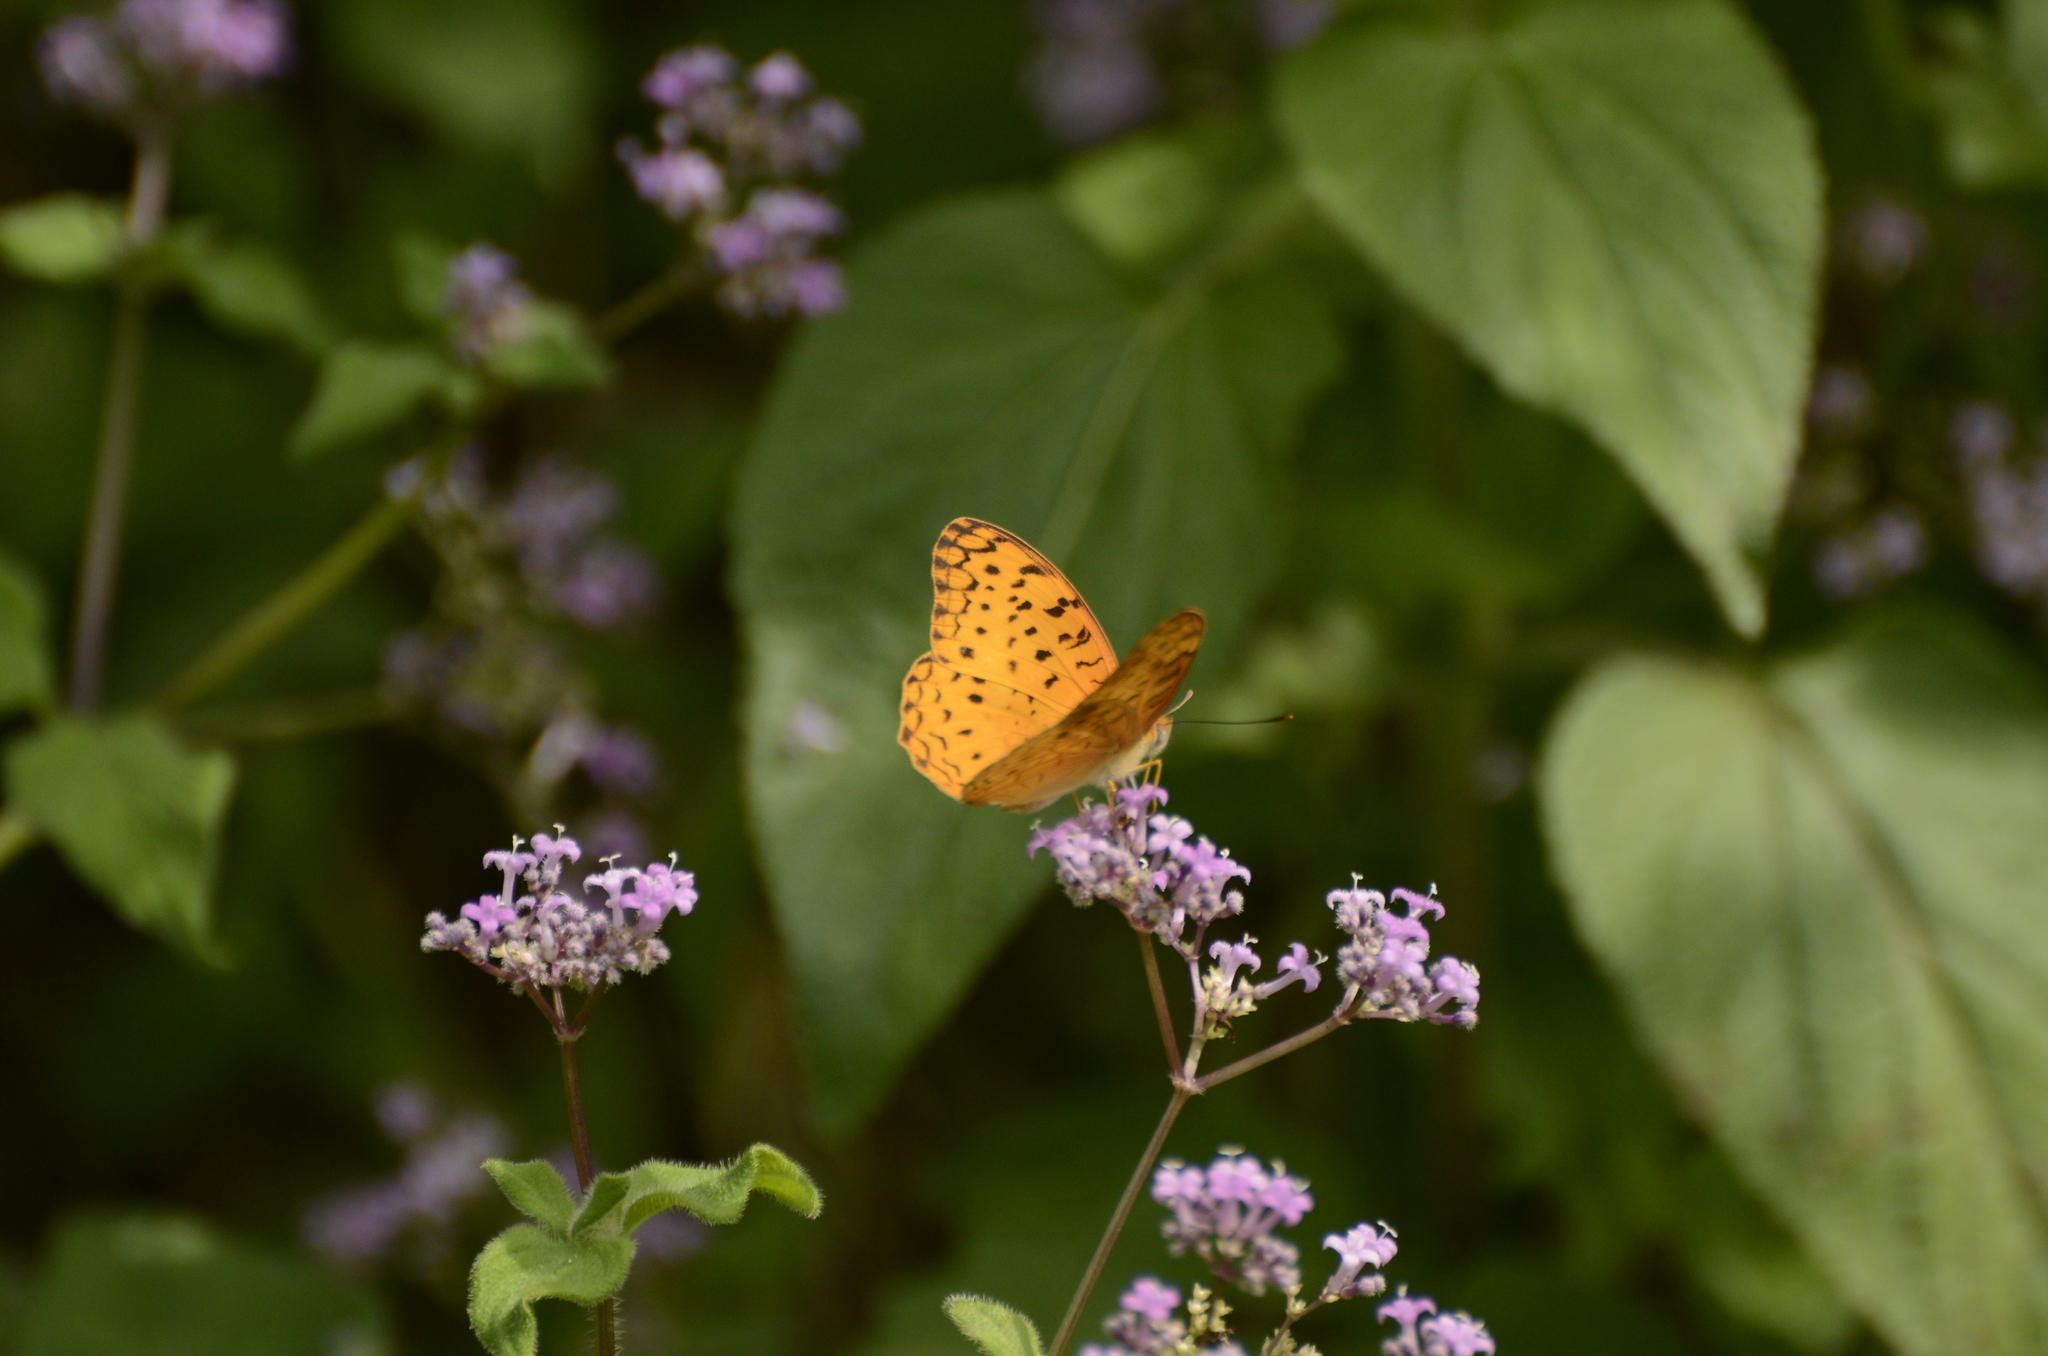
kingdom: Animalia
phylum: Arthropoda
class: Insecta
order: Lepidoptera
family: Nymphalidae
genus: Phalanta
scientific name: Phalanta phalantha
